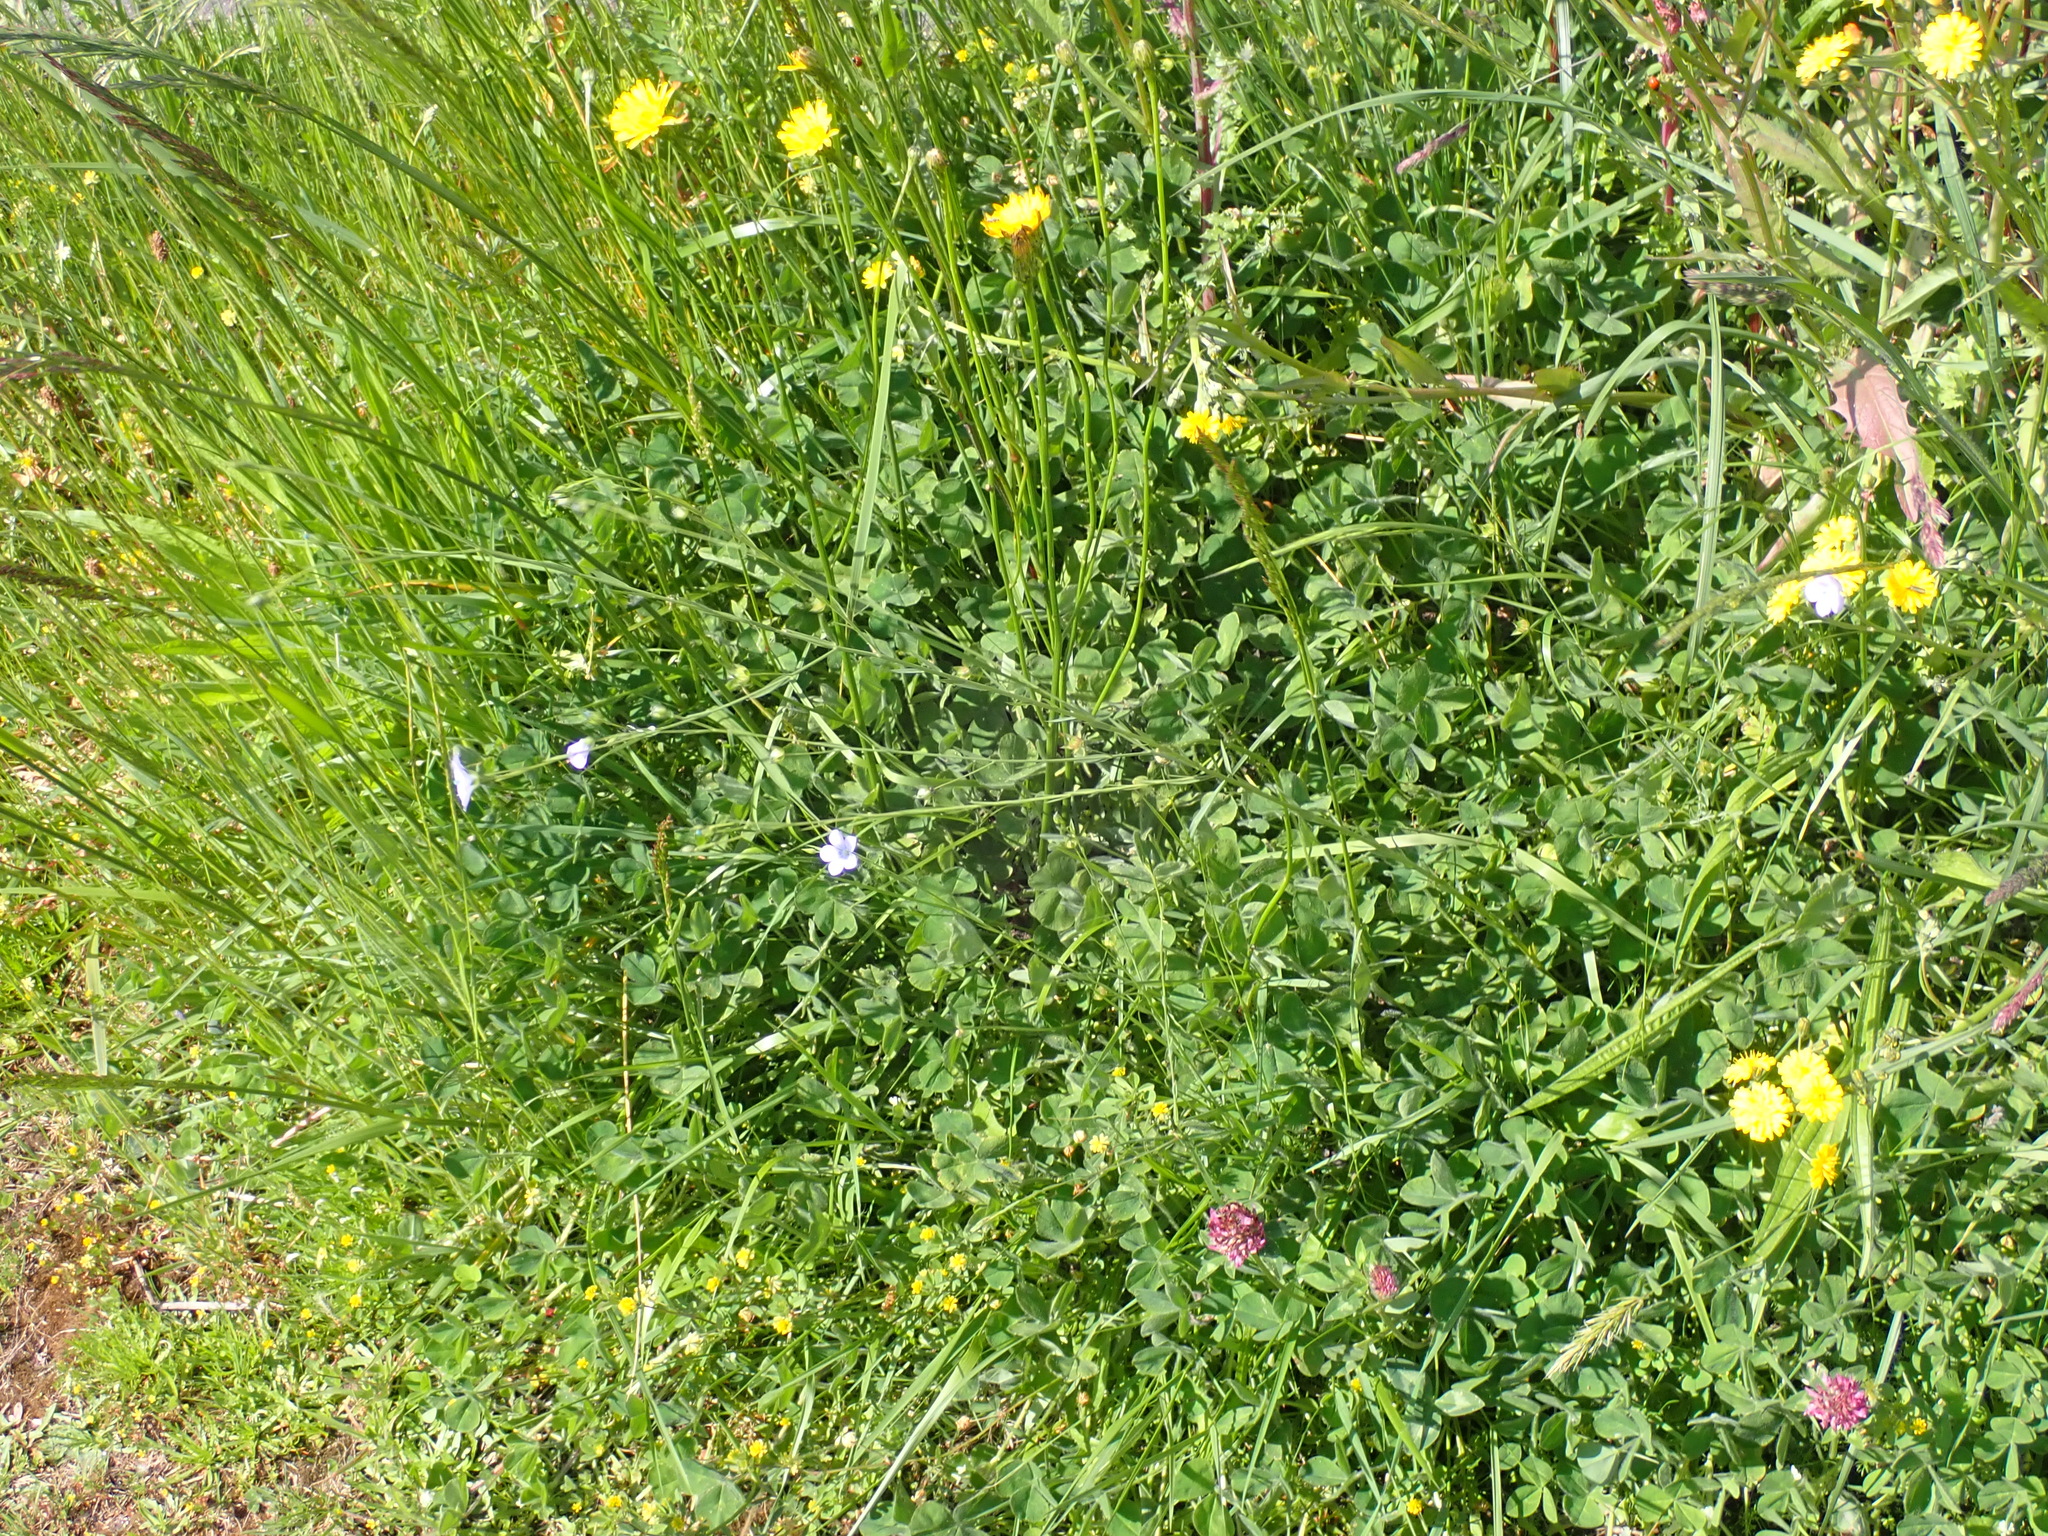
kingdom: Plantae
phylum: Tracheophyta
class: Magnoliopsida
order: Malpighiales
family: Linaceae
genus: Linum
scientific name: Linum bienne
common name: Pale flax
